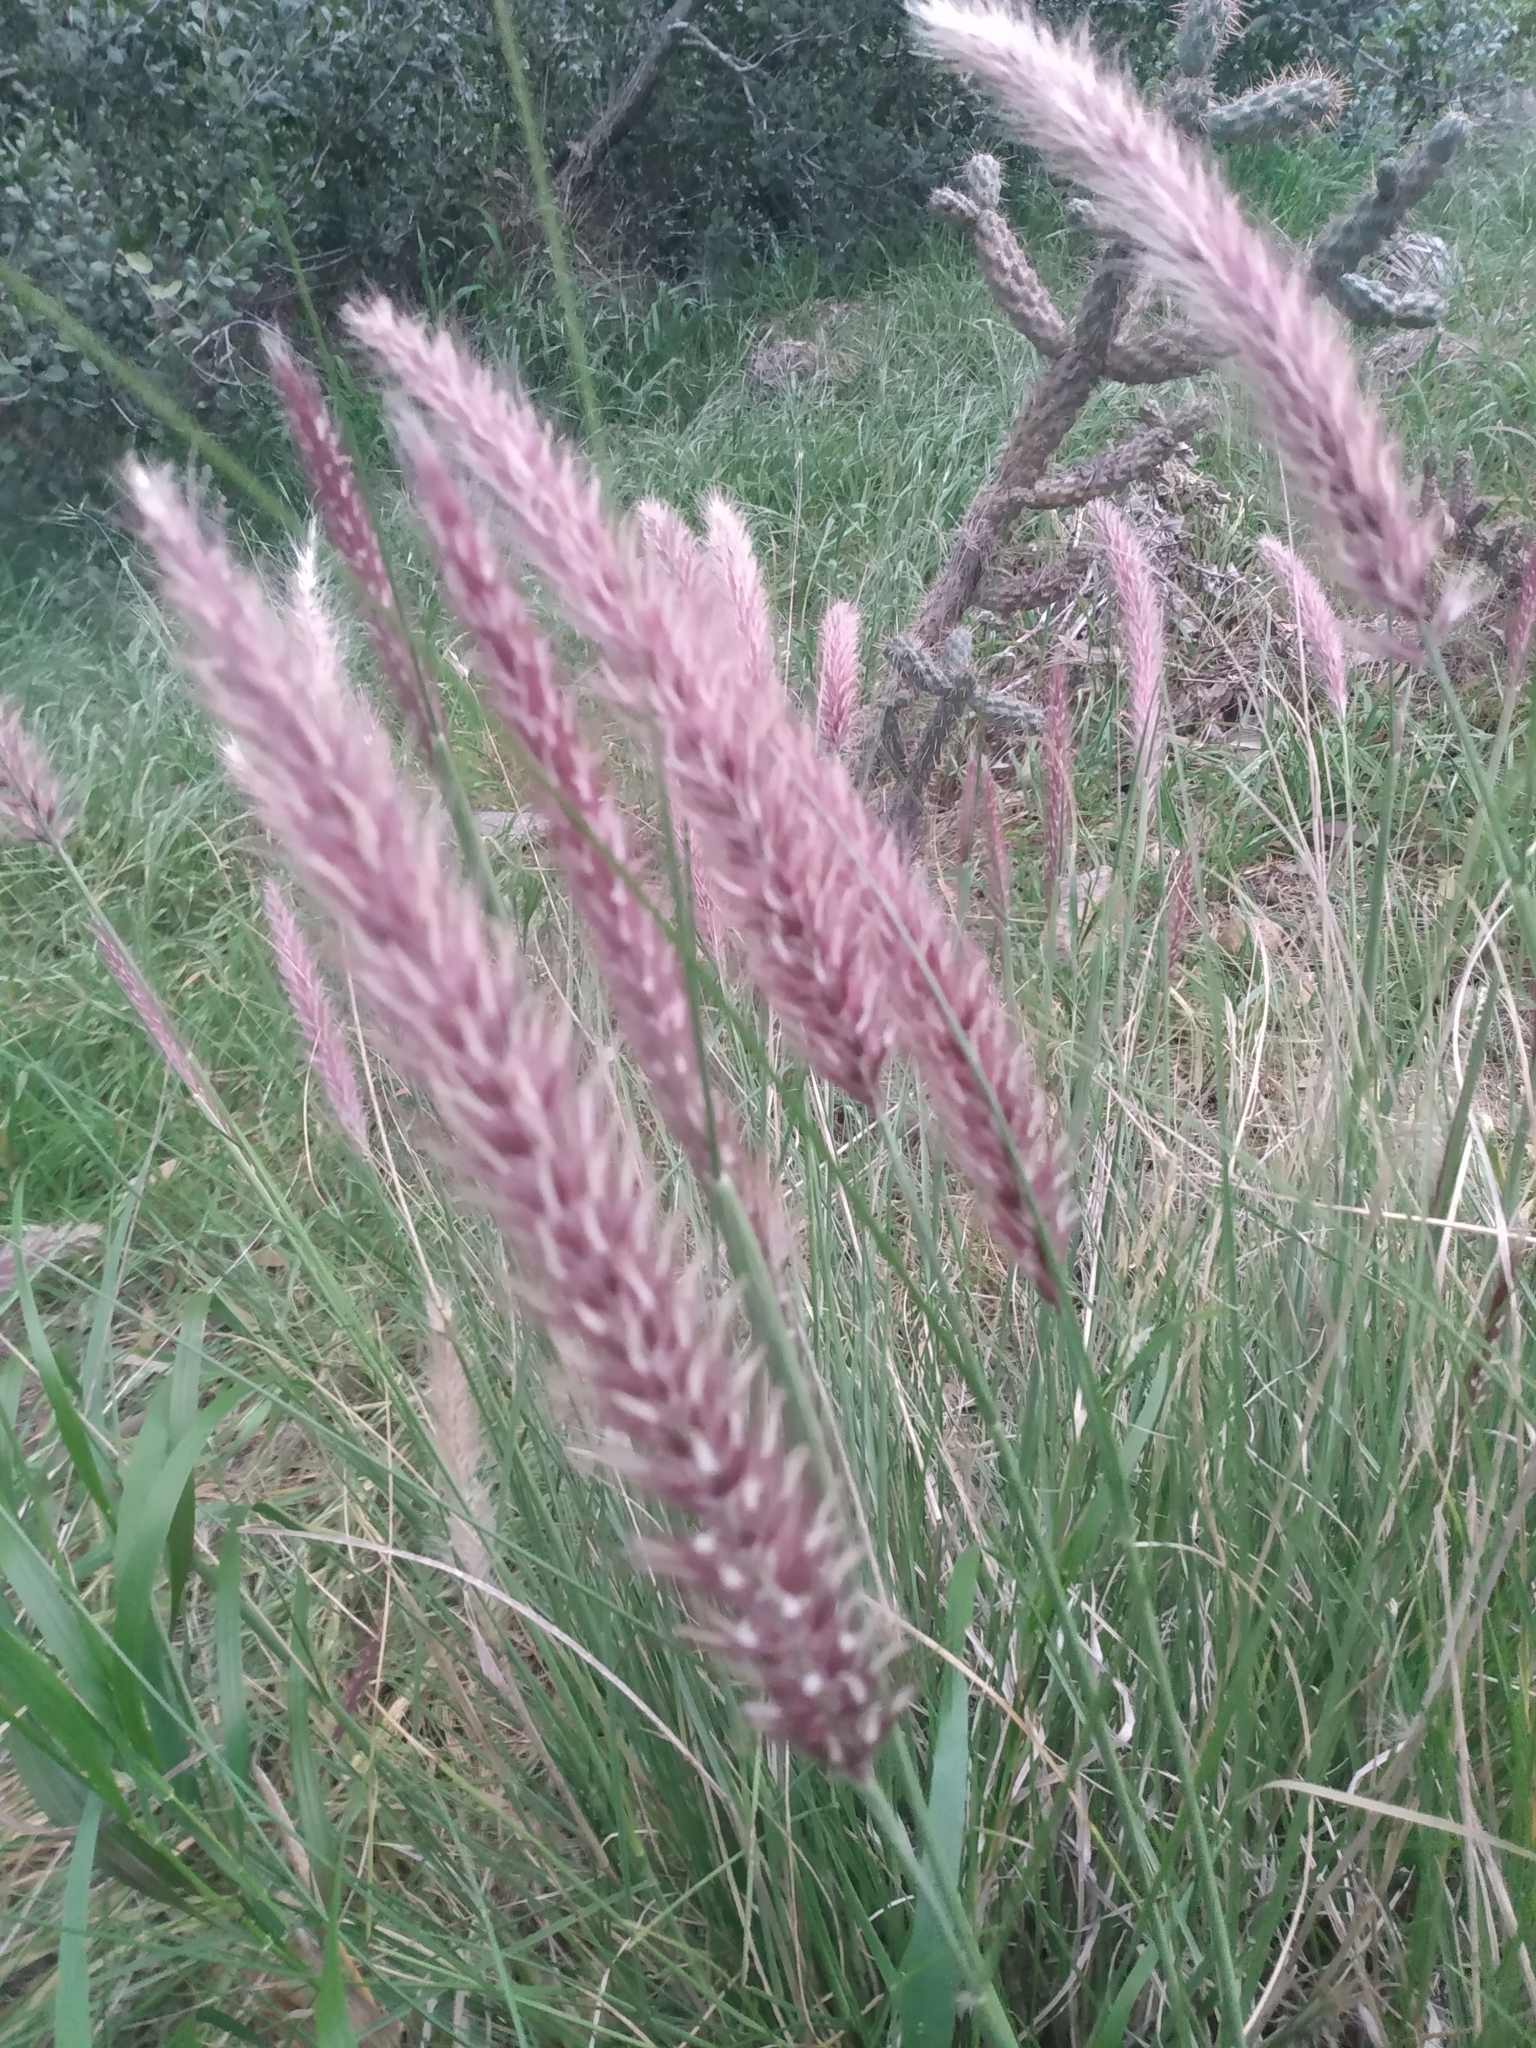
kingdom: Plantae
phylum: Tracheophyta
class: Liliopsida
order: Poales
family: Poaceae
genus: Cenchrus
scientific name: Cenchrus setaceus
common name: Crimson fountaingrass
